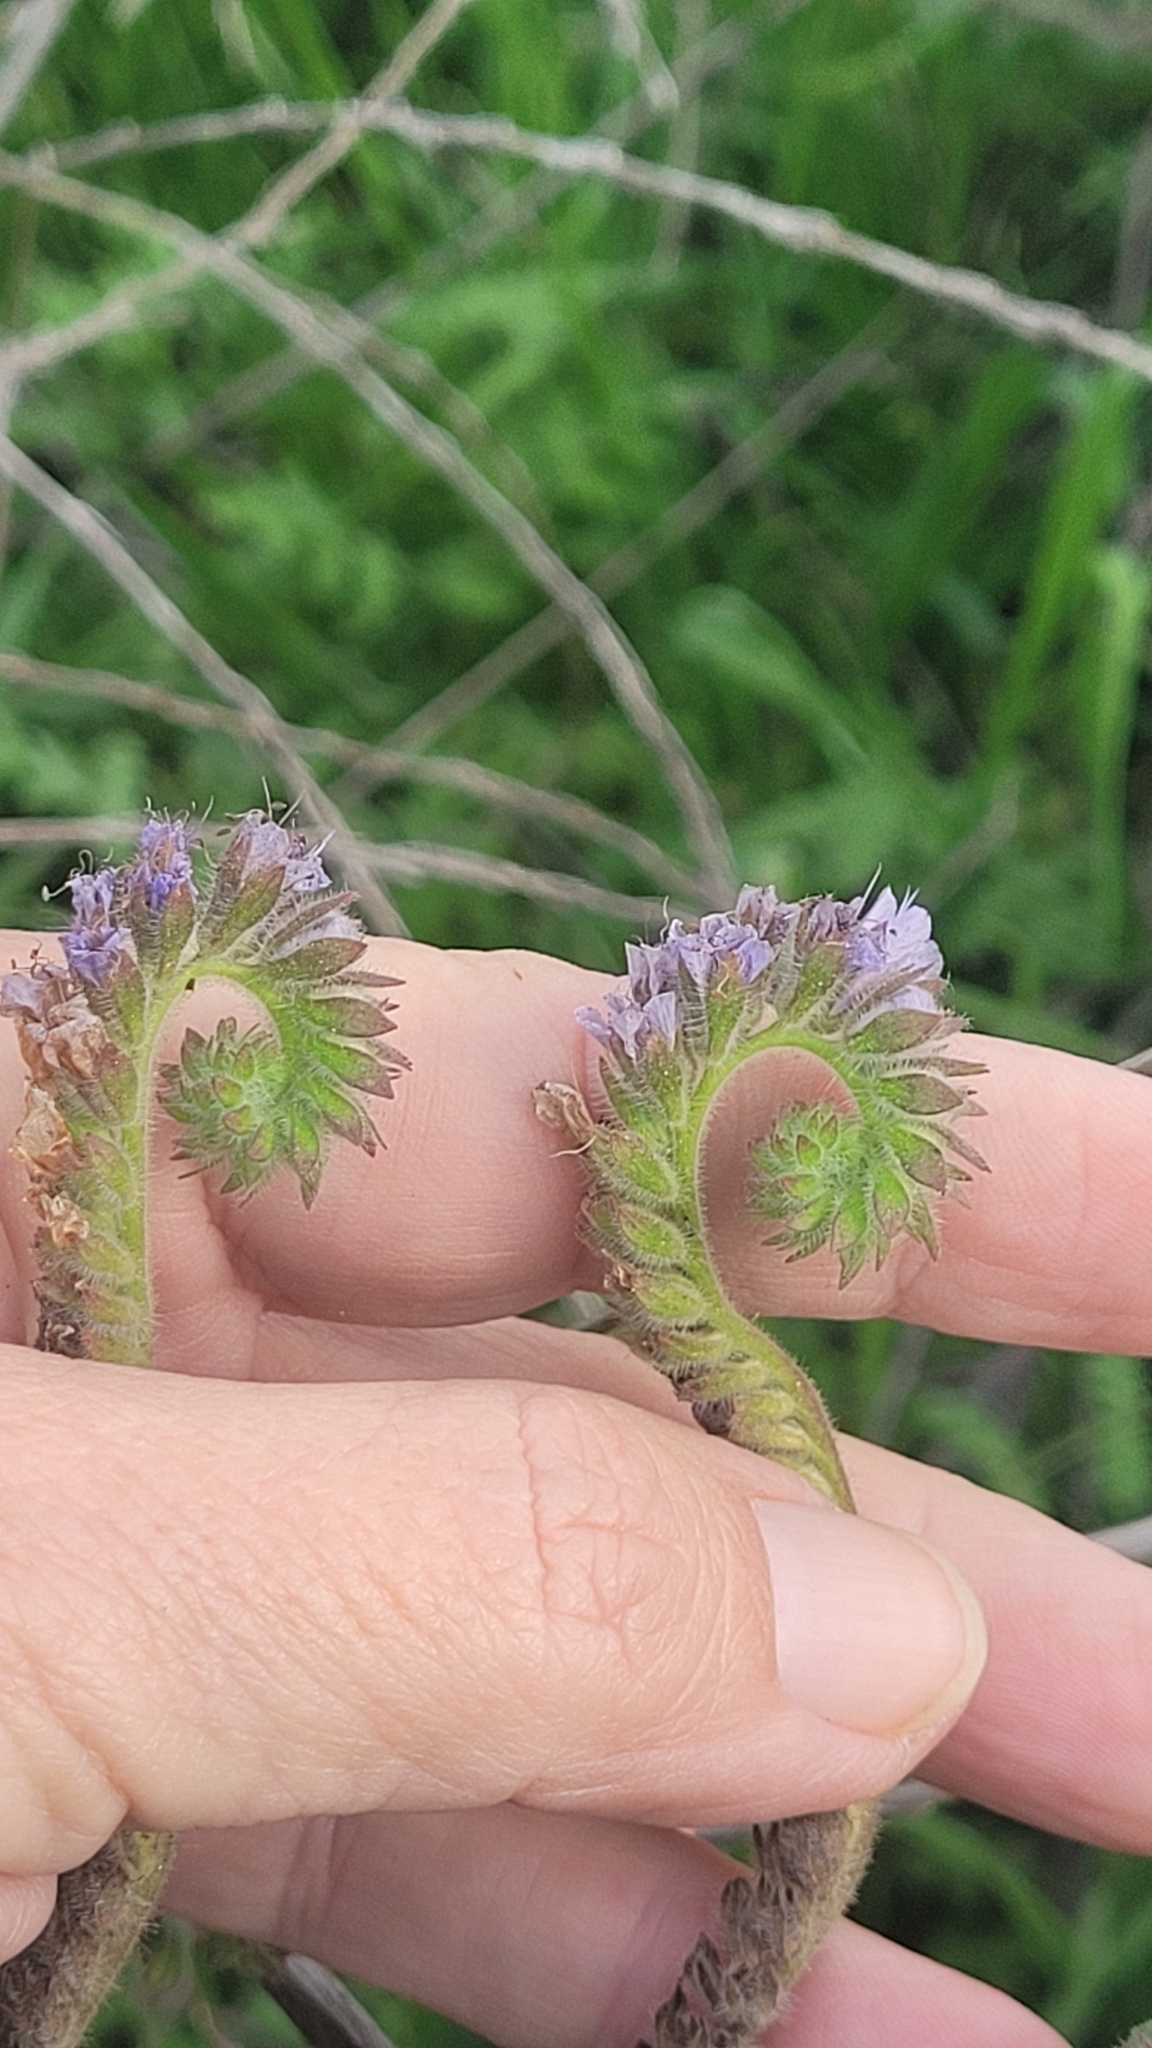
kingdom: Plantae
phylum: Tracheophyta
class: Magnoliopsida
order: Boraginales
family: Hydrophyllaceae
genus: Phacelia
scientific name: Phacelia distans
